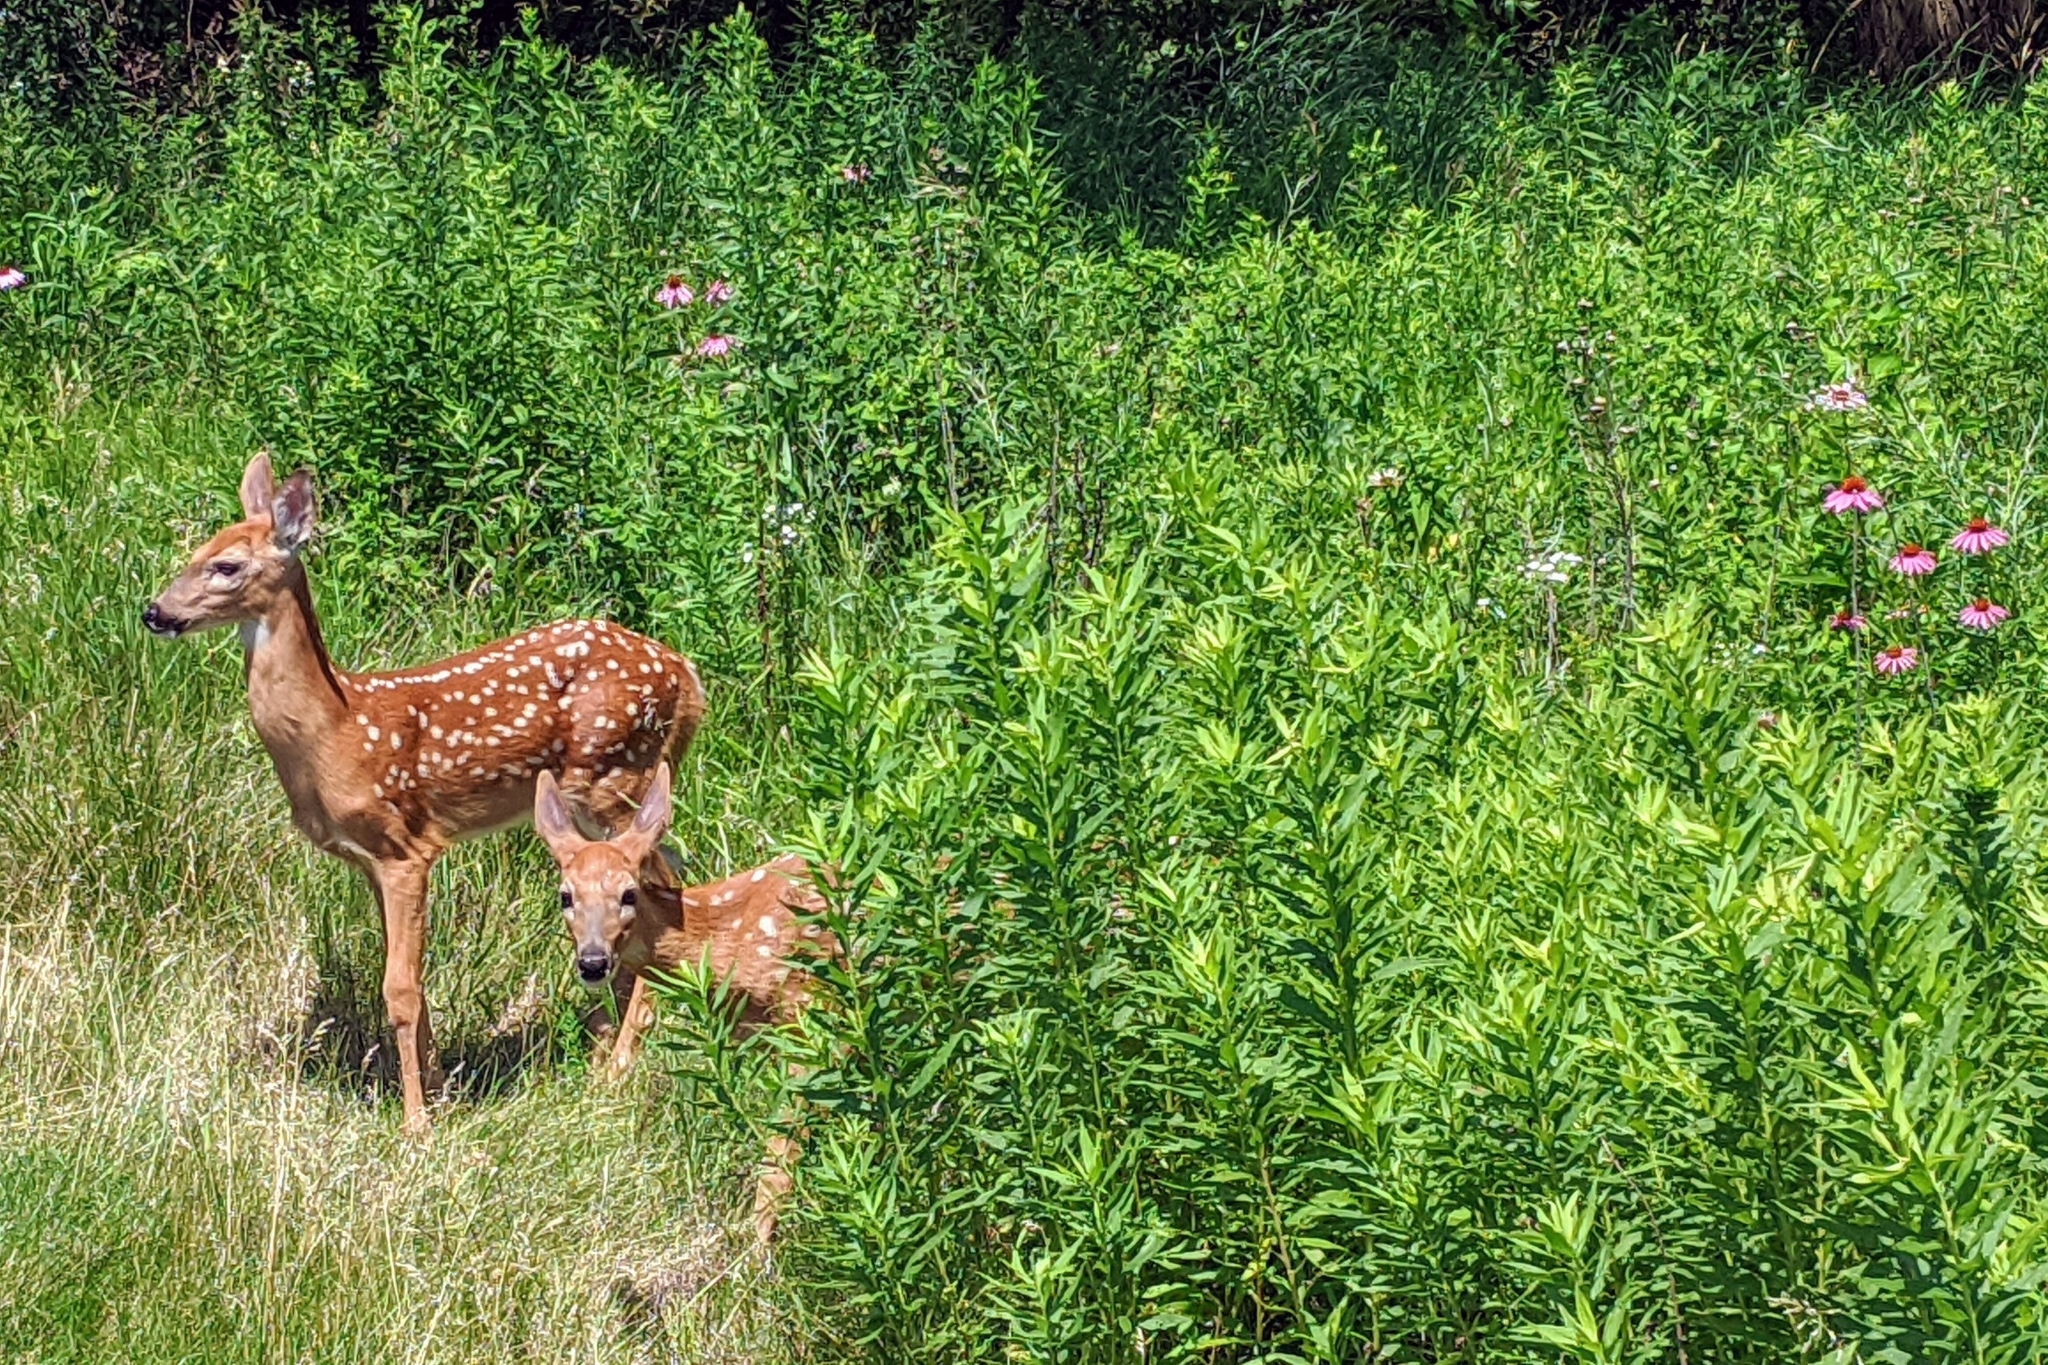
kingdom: Animalia
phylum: Chordata
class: Mammalia
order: Artiodactyla
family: Cervidae
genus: Odocoileus
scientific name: Odocoileus virginianus
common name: White-tailed deer
